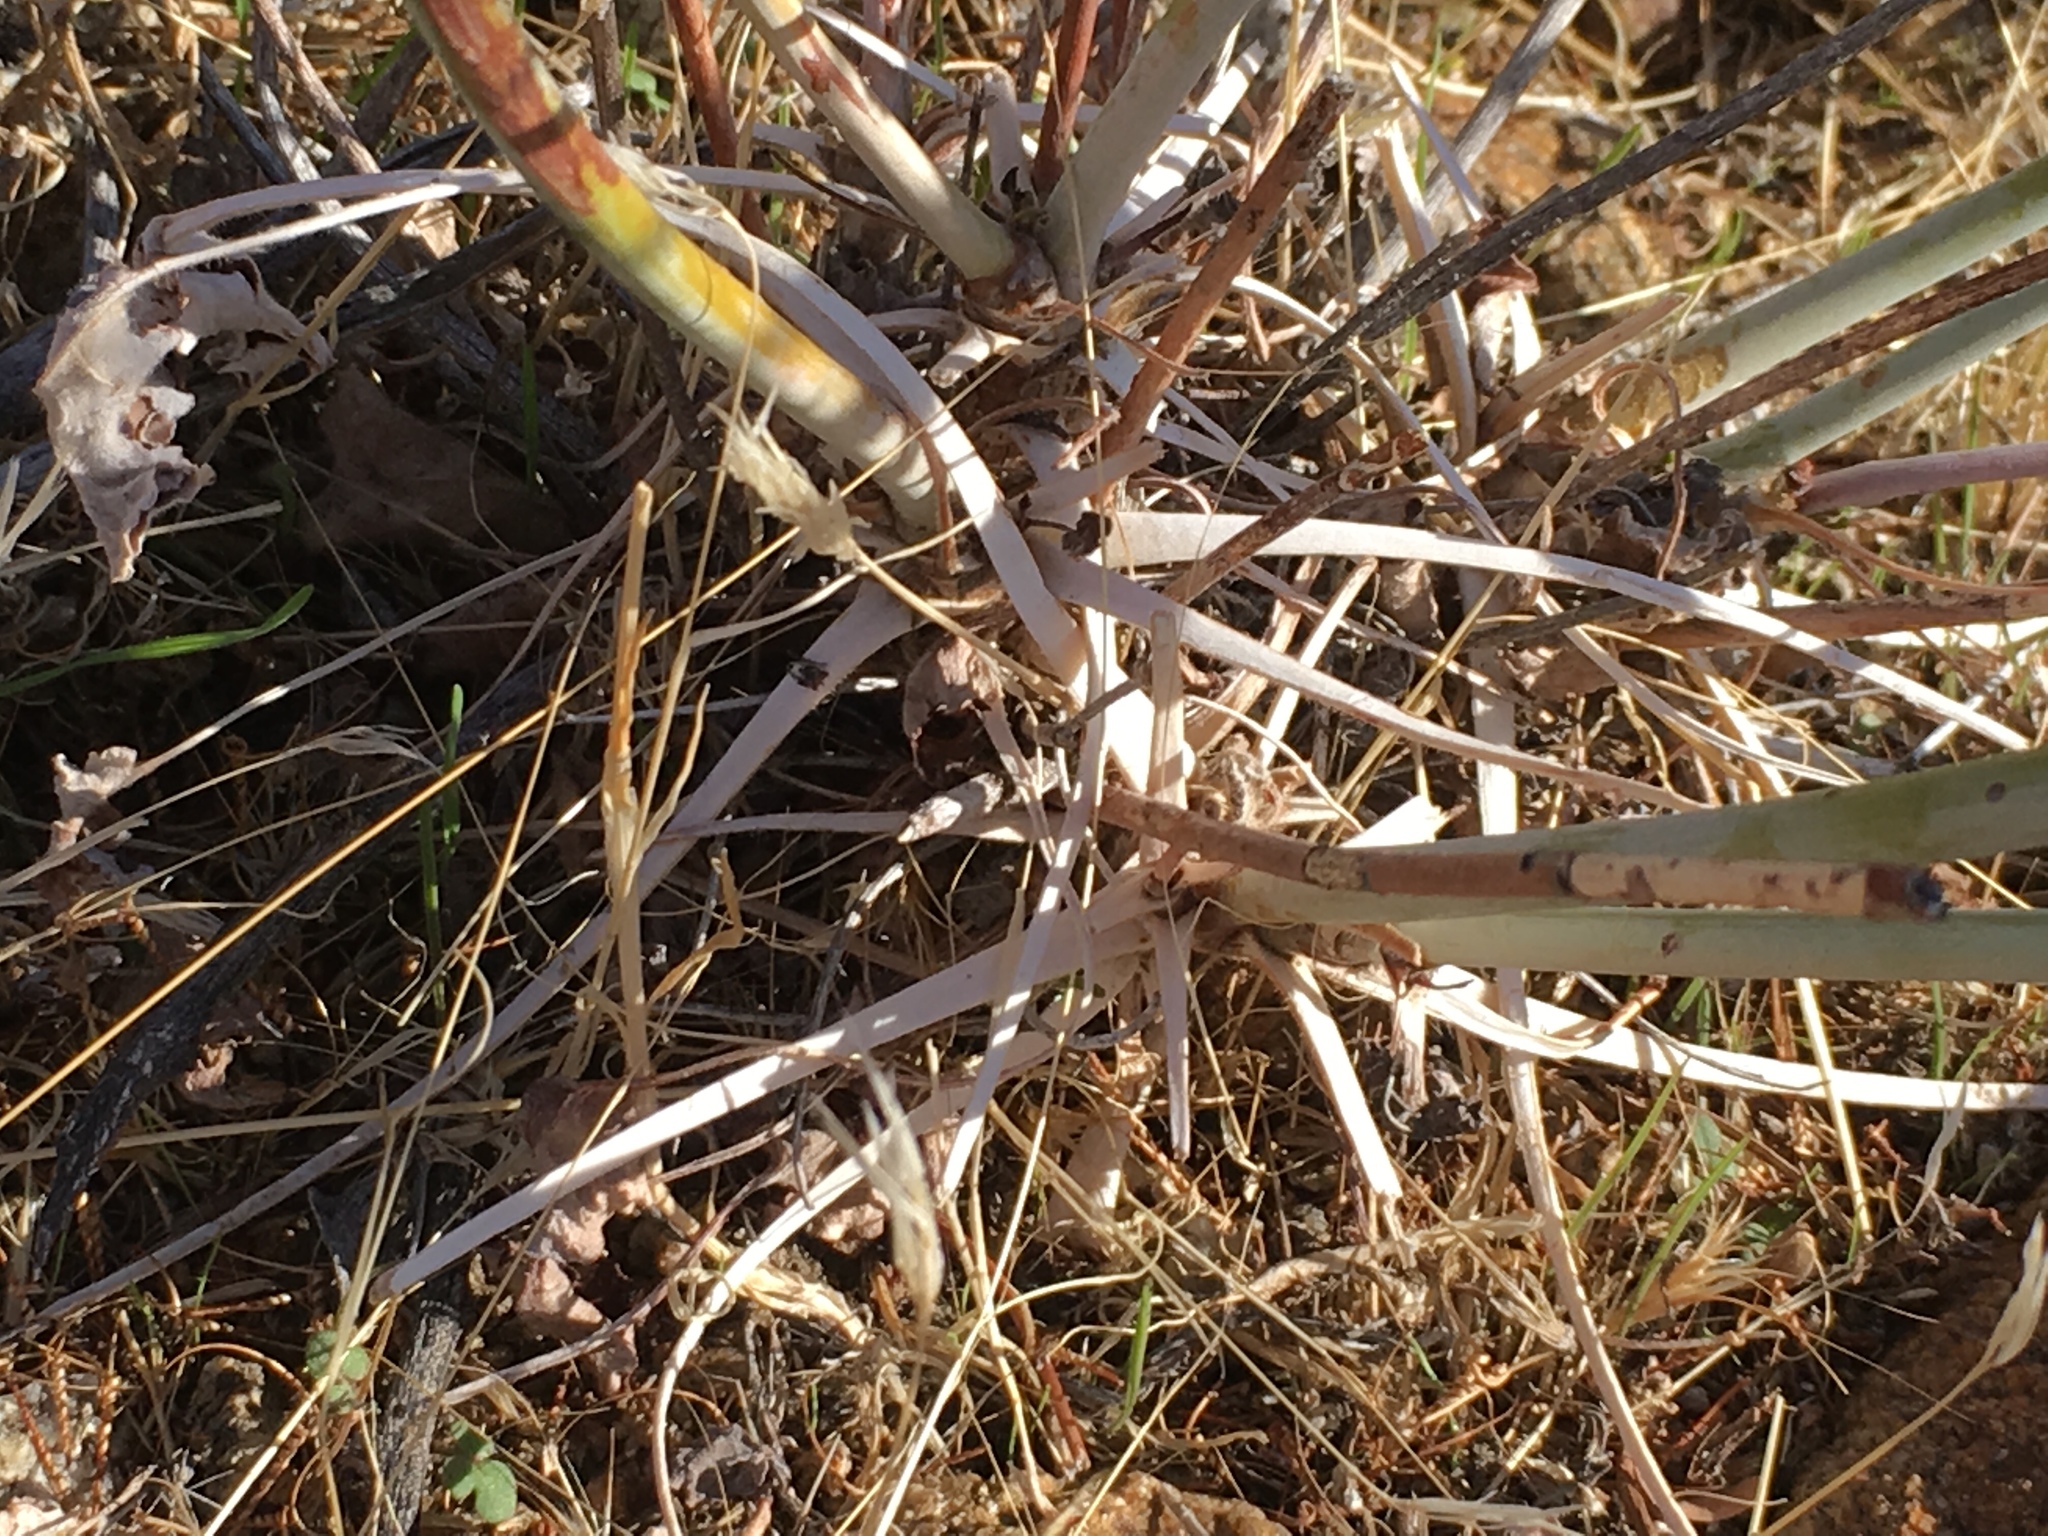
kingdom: Plantae
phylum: Tracheophyta
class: Magnoliopsida
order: Caryophyllales
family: Polygonaceae
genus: Eriogonum
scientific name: Eriogonum inflatum
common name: Desert trumpet
